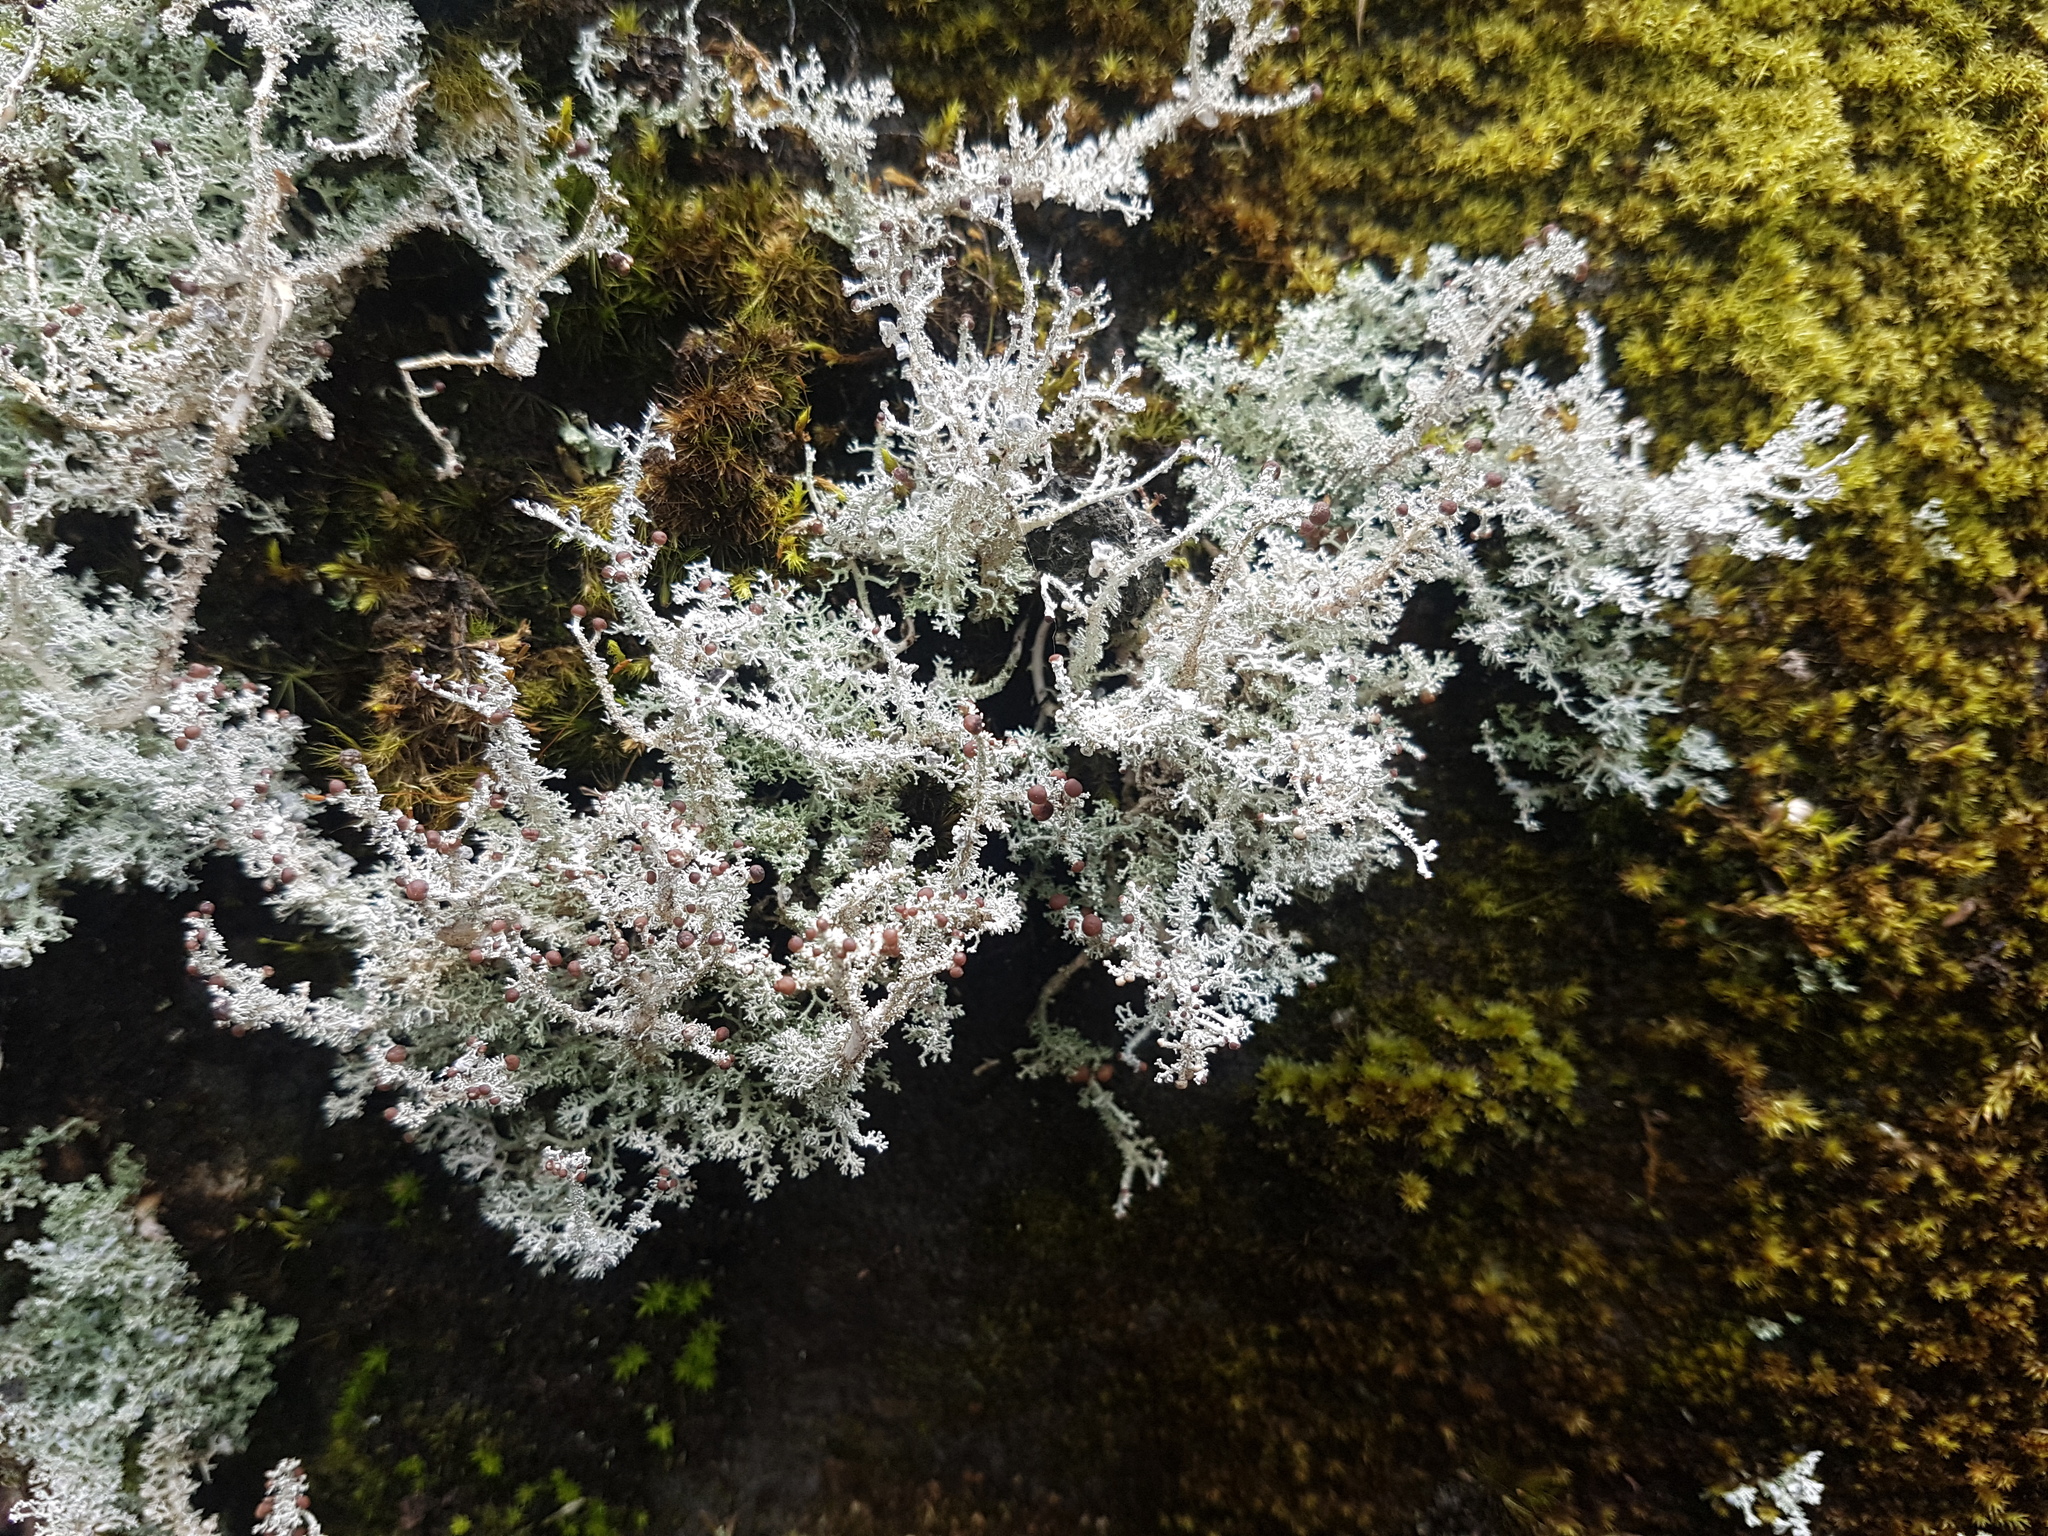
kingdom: Fungi
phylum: Ascomycota
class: Lecanoromycetes
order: Lecanorales
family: Stereocaulaceae
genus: Stereocaulon
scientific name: Stereocaulon ramulosum
